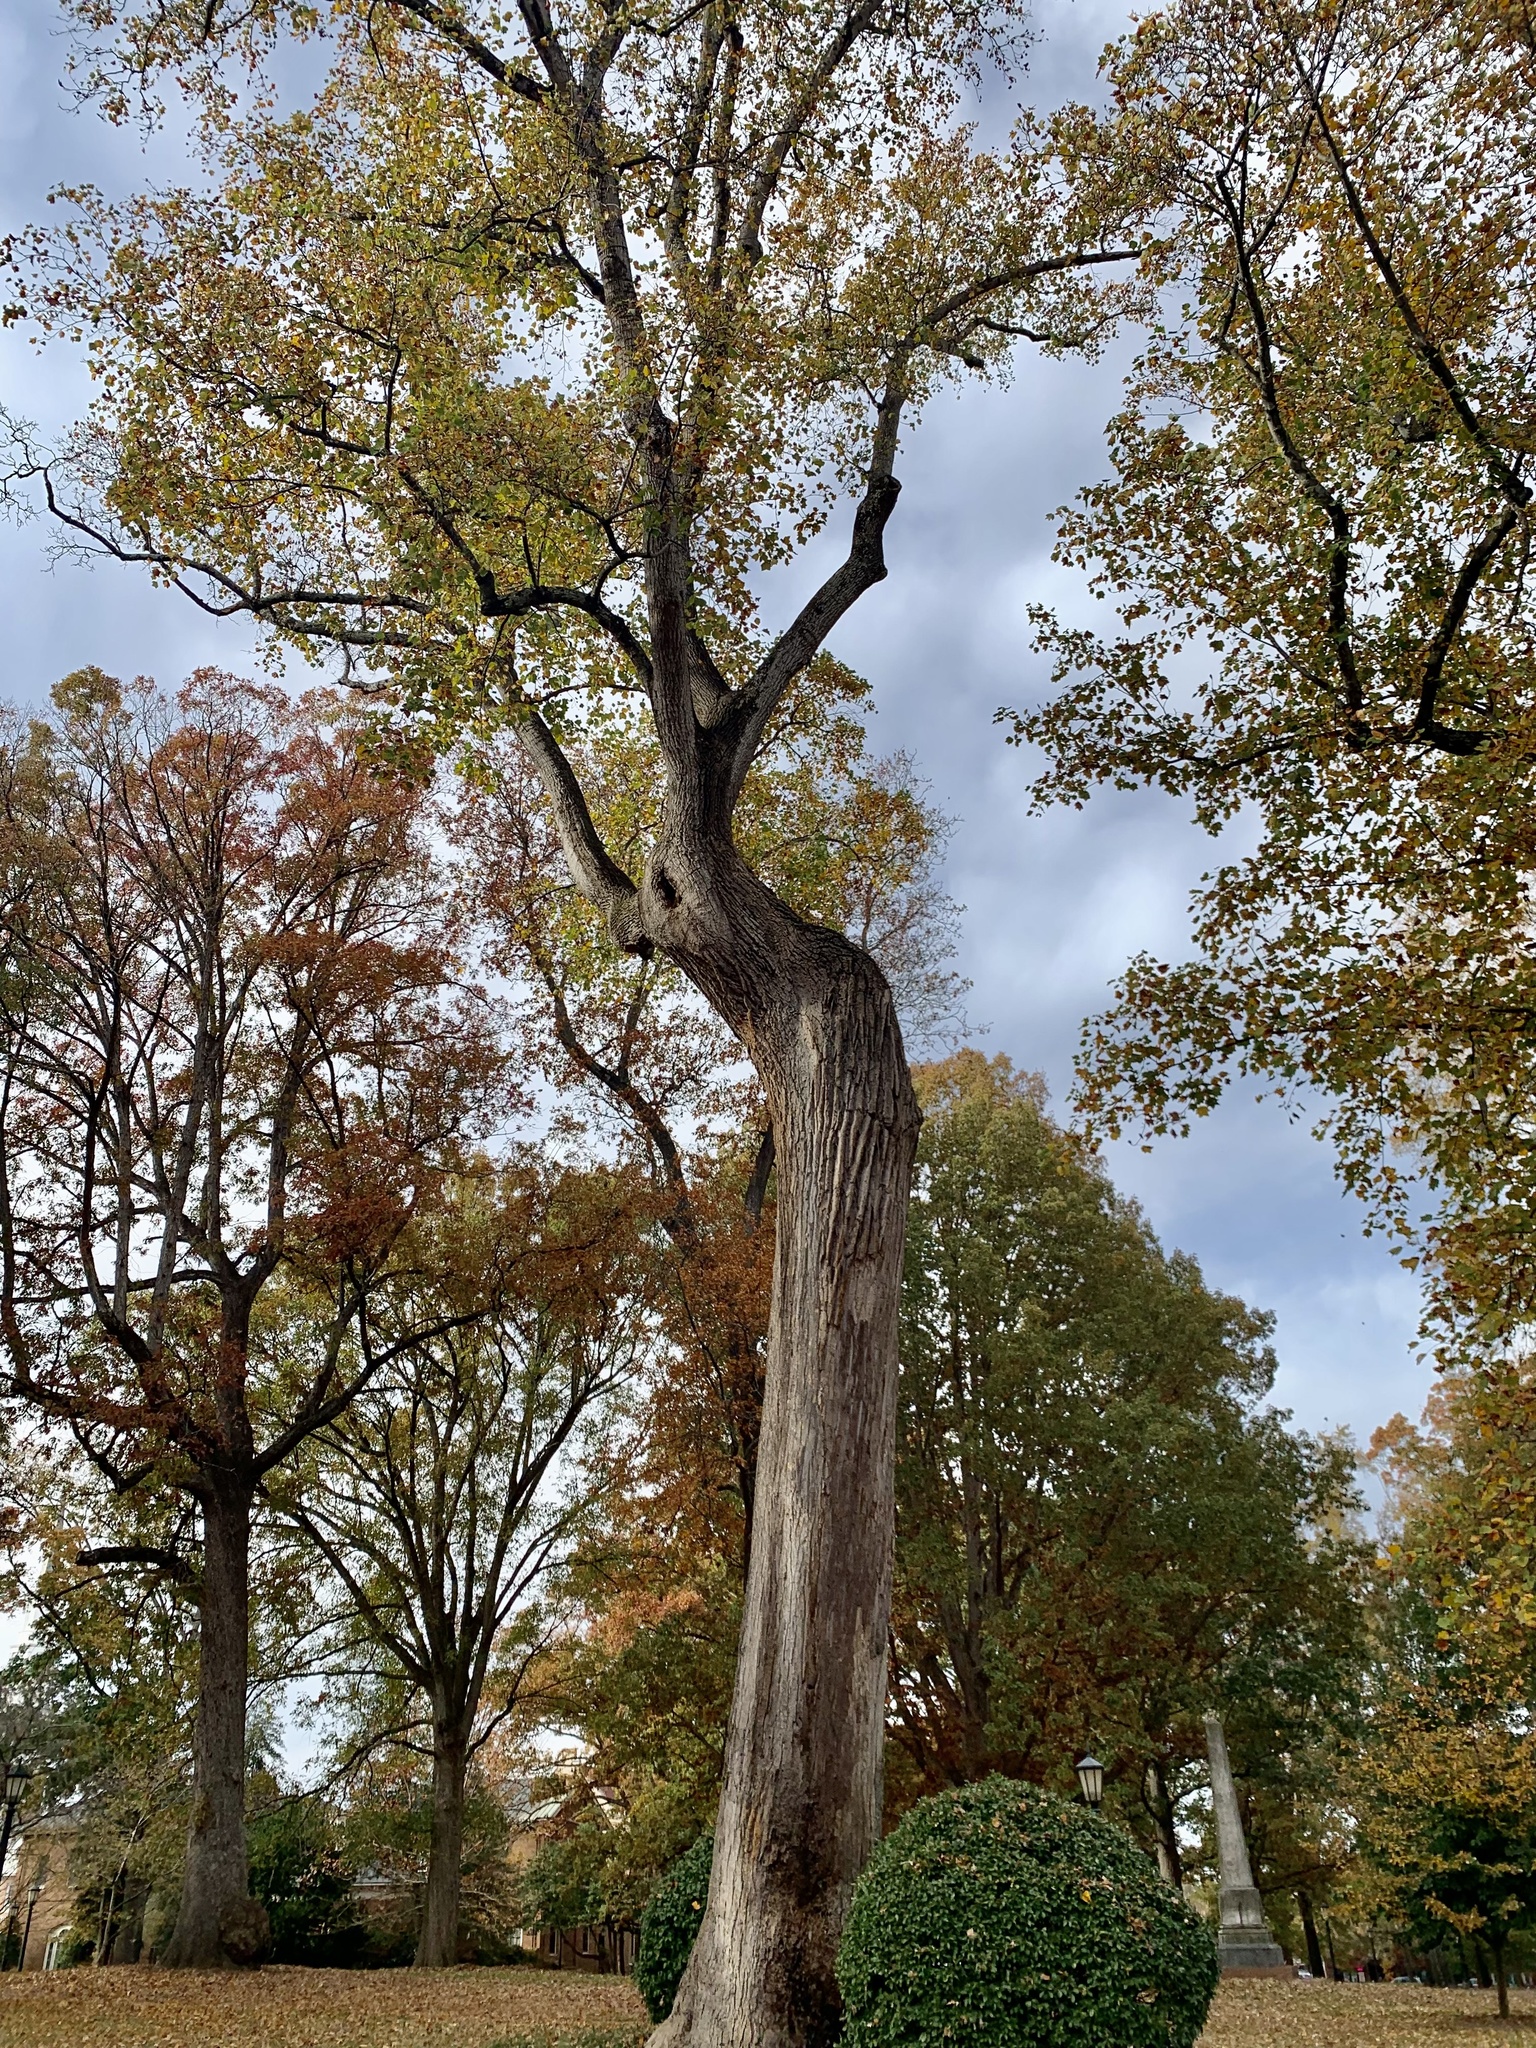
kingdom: Plantae
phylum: Tracheophyta
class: Magnoliopsida
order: Magnoliales
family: Magnoliaceae
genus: Liriodendron
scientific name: Liriodendron tulipifera
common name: Tulip tree
